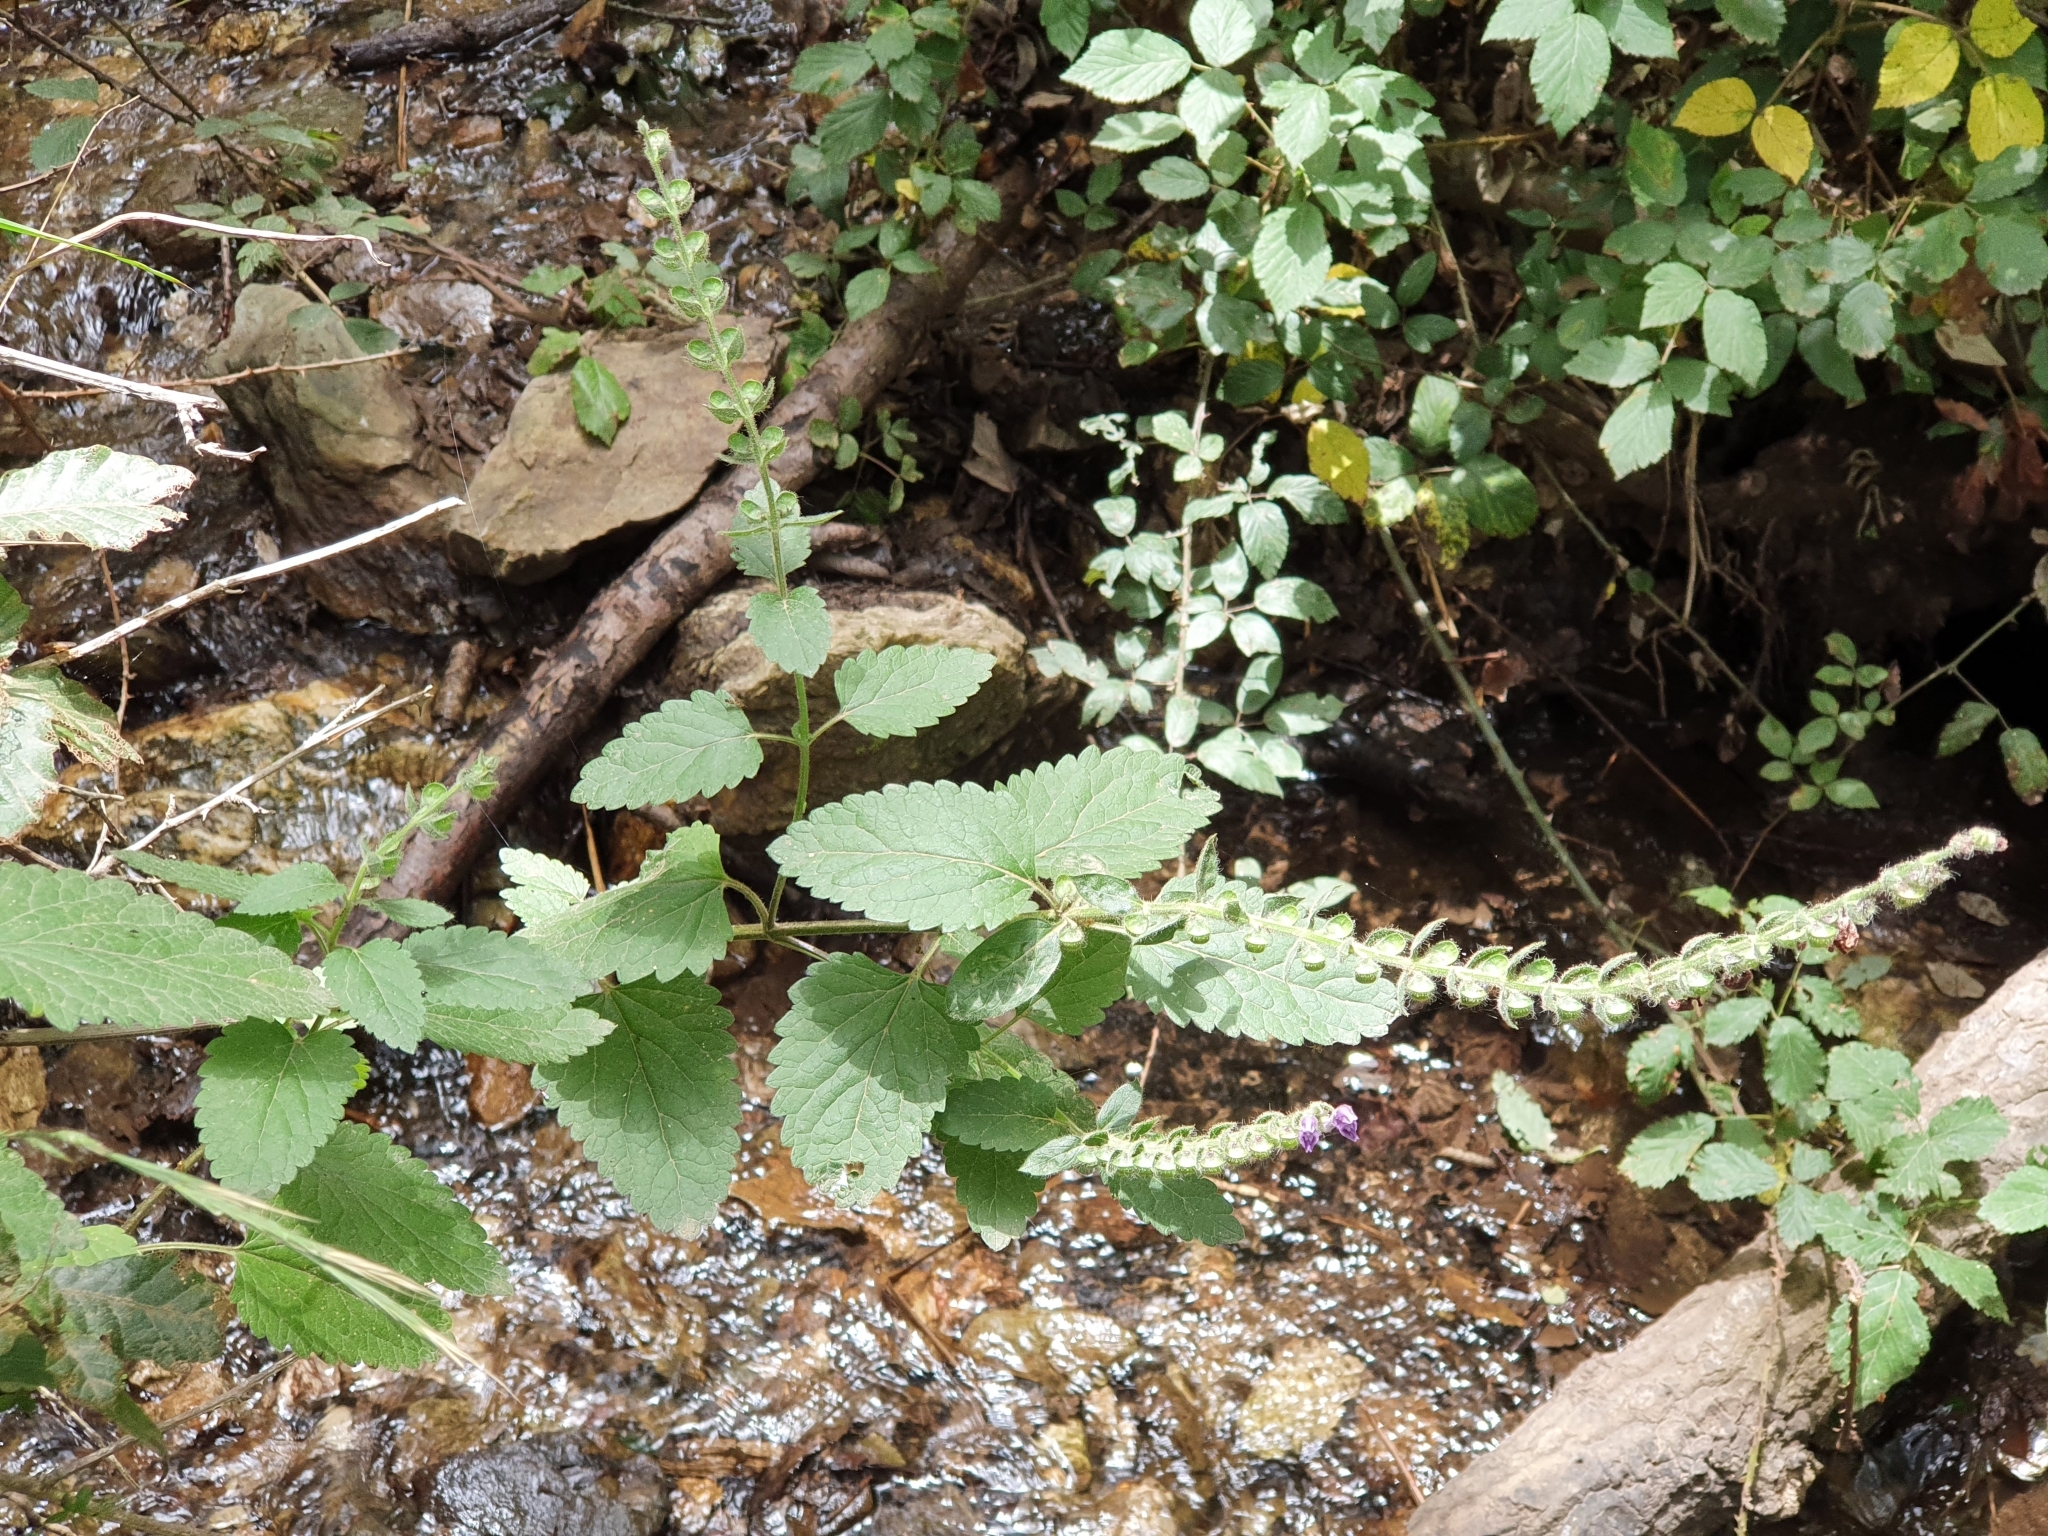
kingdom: Plantae
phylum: Tracheophyta
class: Magnoliopsida
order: Lamiales
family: Lamiaceae
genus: Scutellaria
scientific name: Scutellaria columnae
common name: Large skullcap
